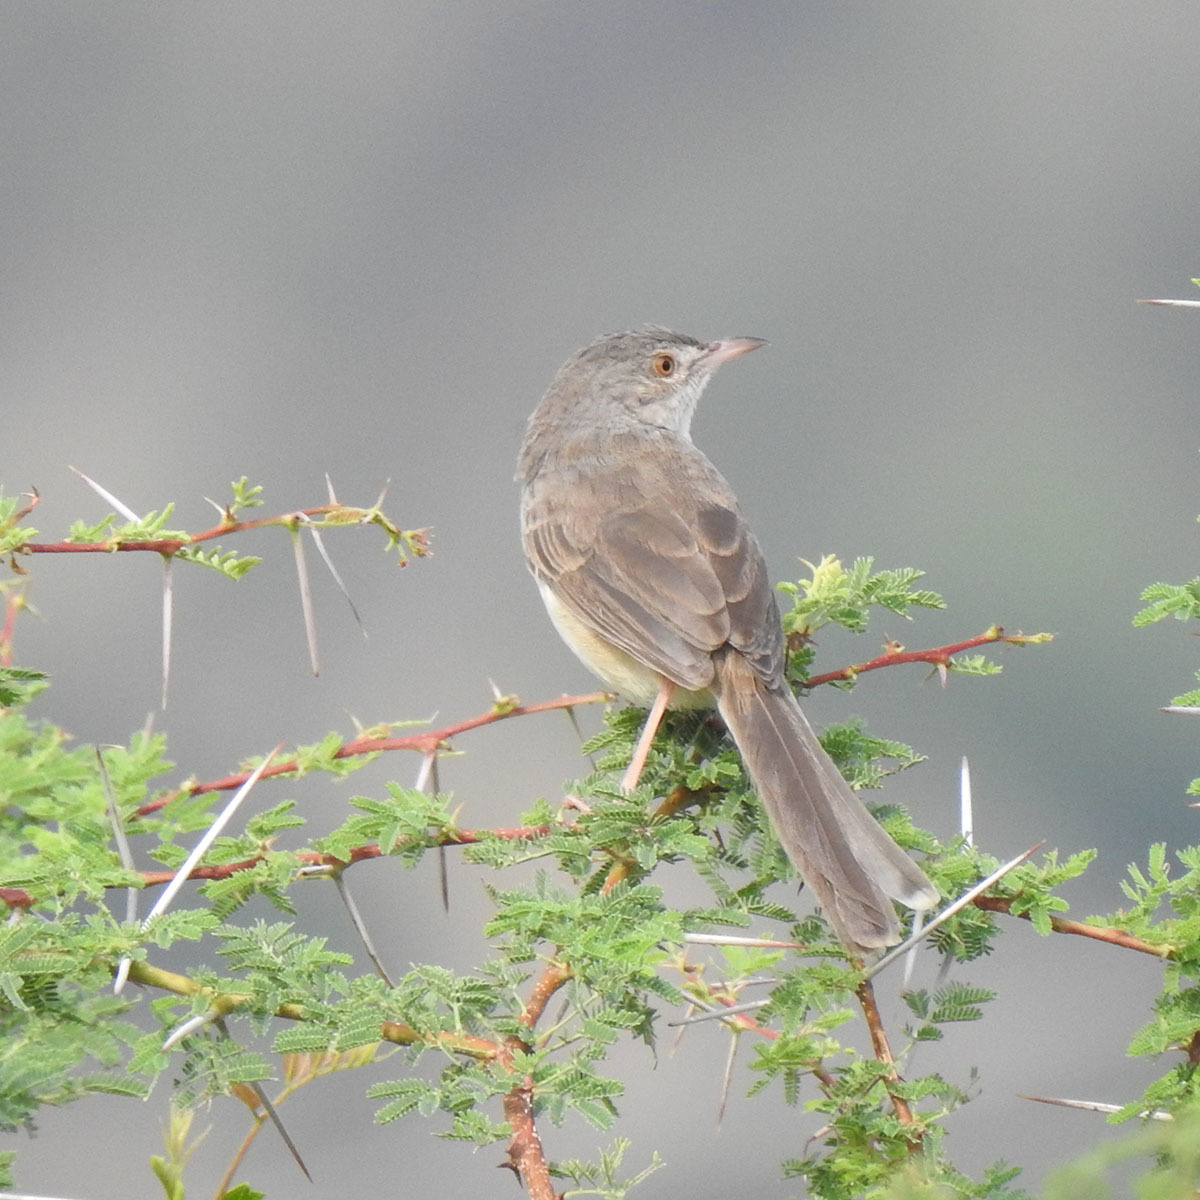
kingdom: Animalia
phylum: Chordata
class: Aves
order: Passeriformes
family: Cisticolidae
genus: Prinia
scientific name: Prinia sylvatica
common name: Jungle prinia
